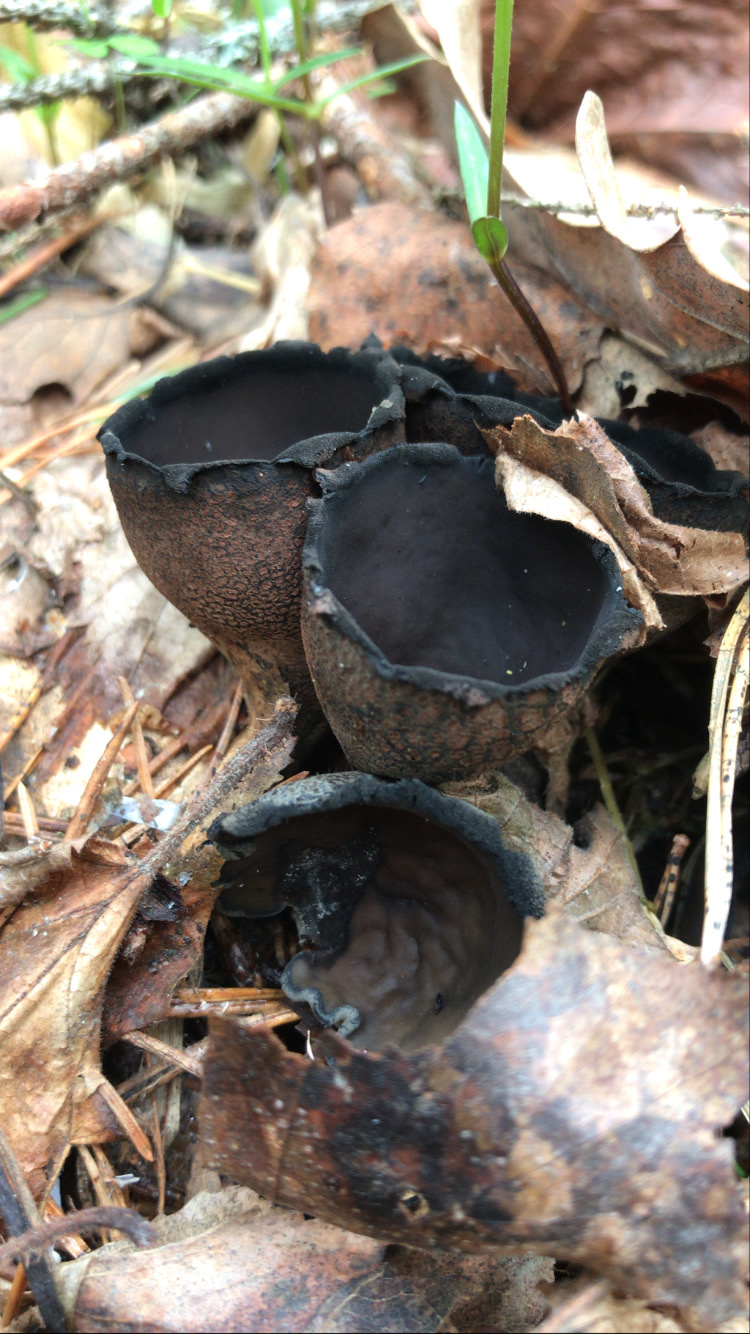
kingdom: Fungi
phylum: Ascomycota
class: Pezizomycetes
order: Pezizales
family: Sarcosomataceae
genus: Urnula
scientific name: Urnula craterium
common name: Devil's urn
